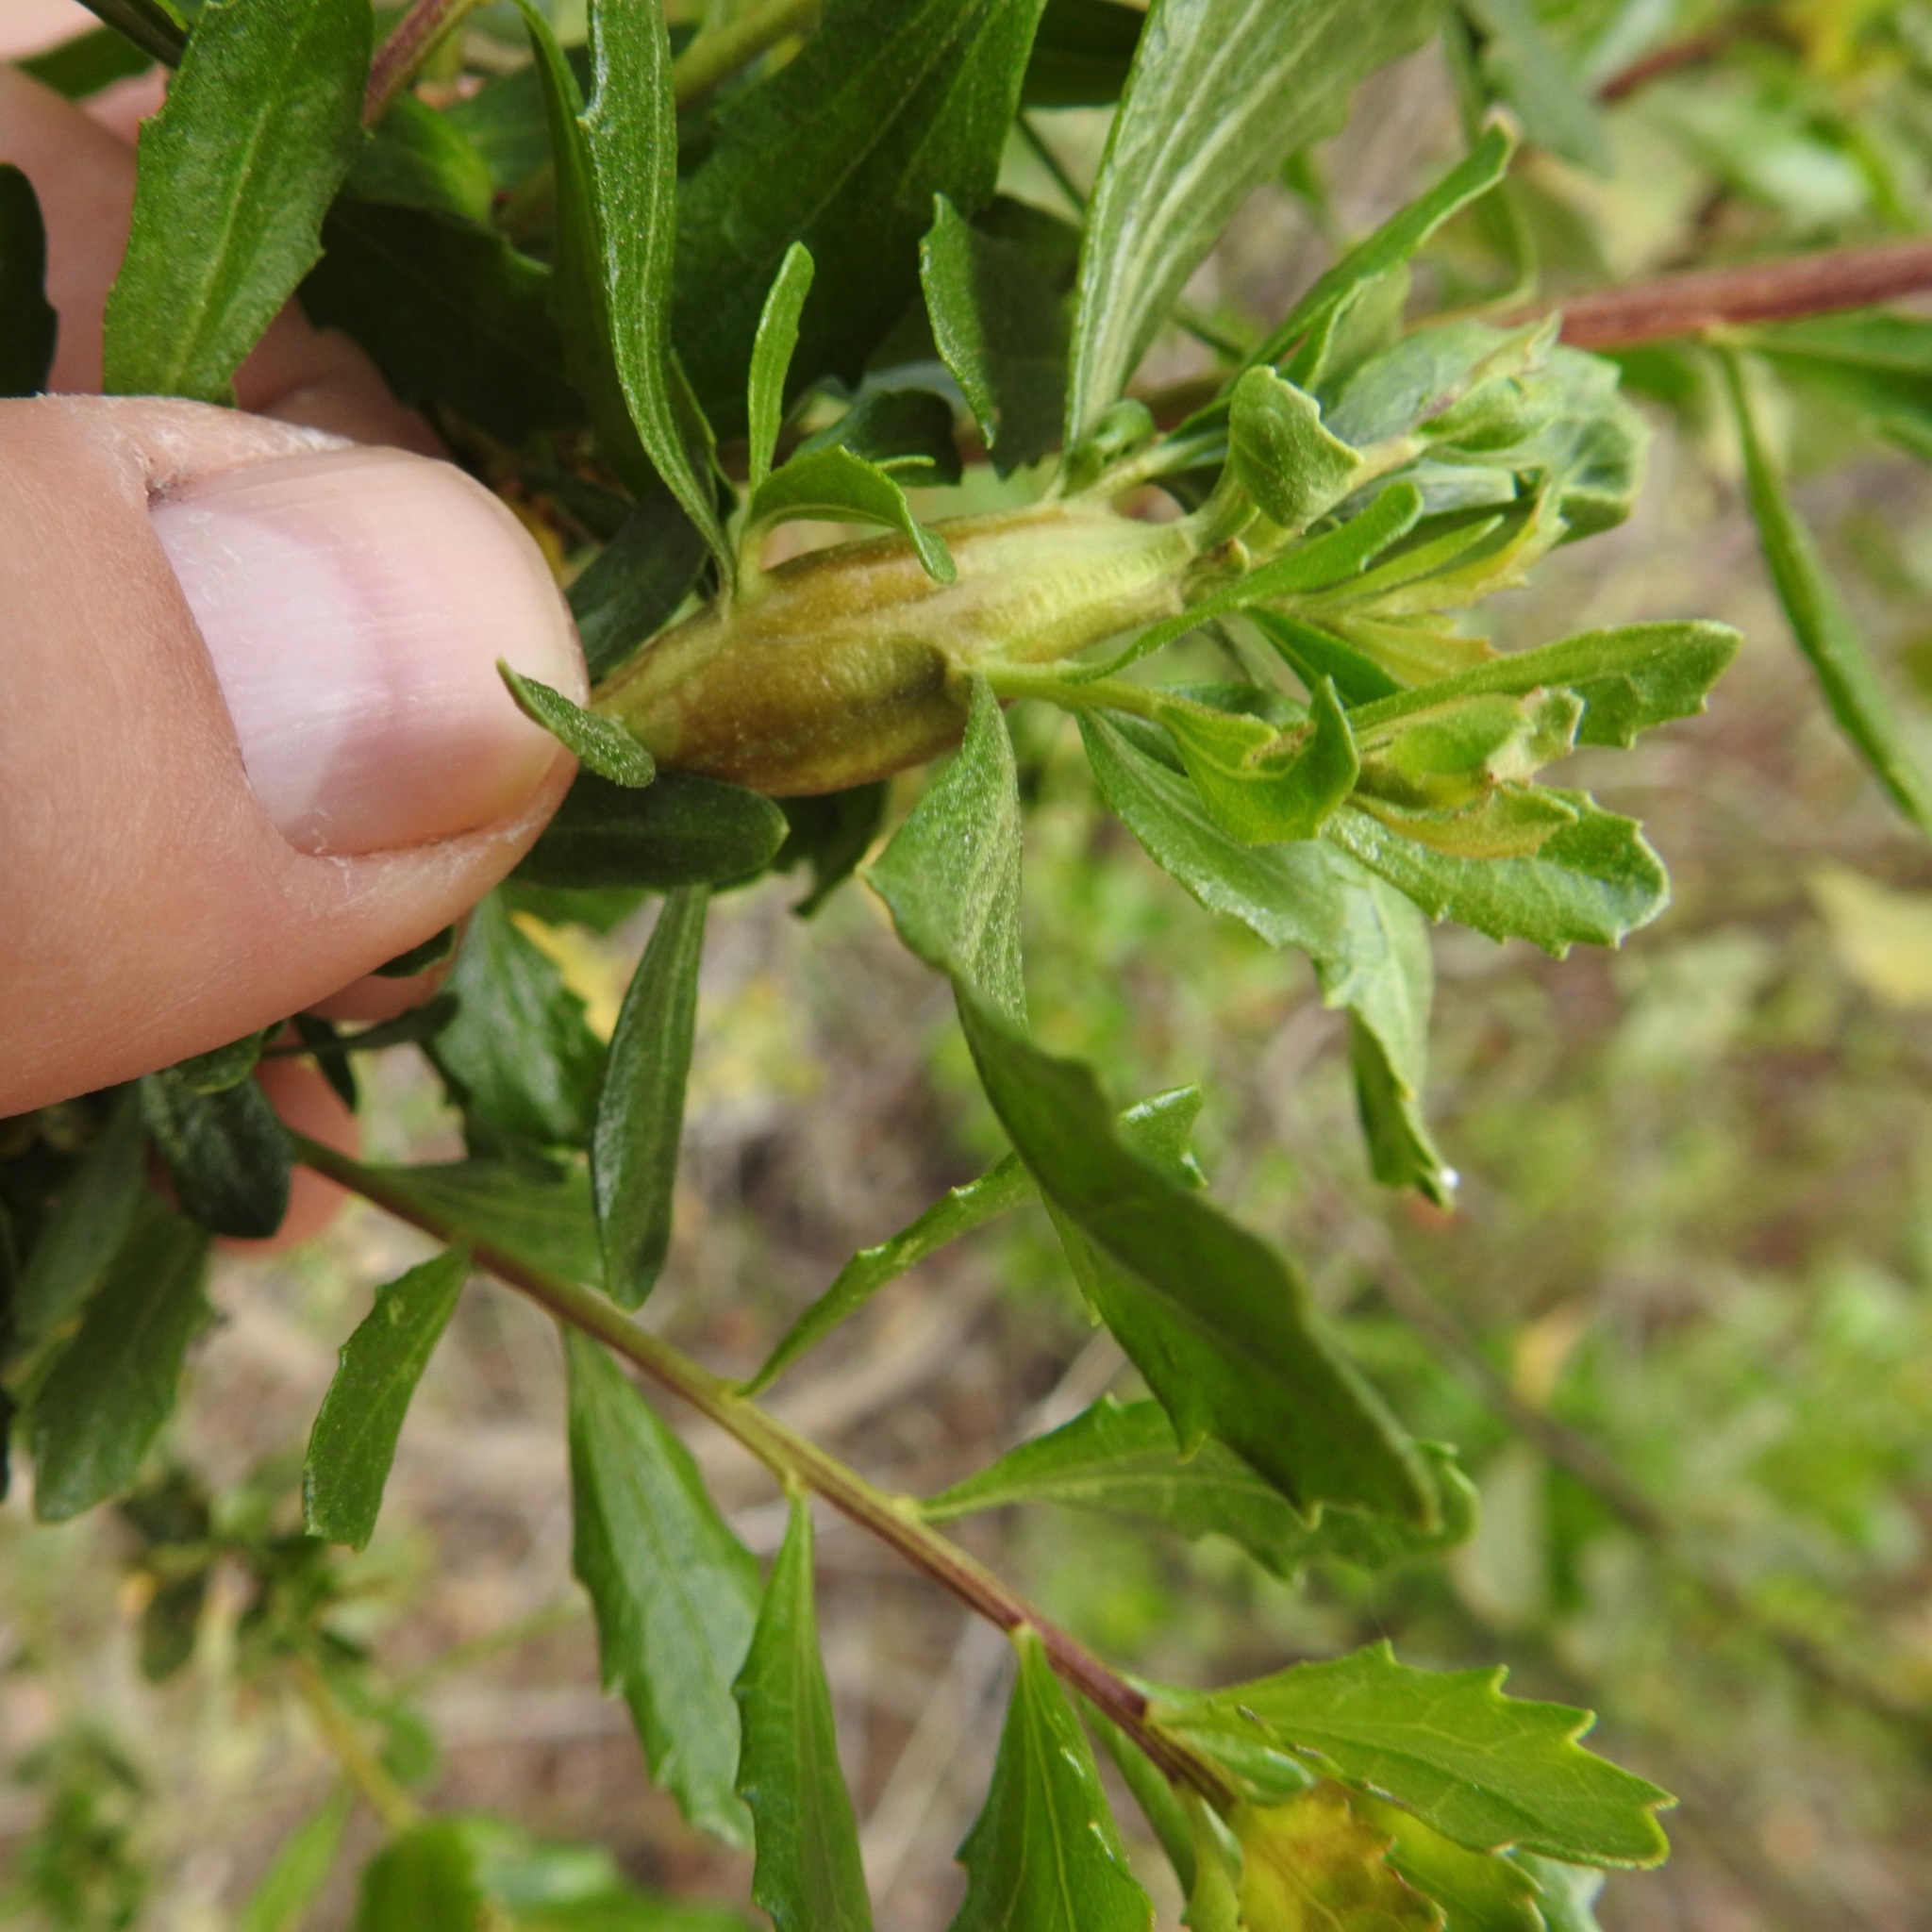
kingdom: Animalia
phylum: Arthropoda
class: Insecta
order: Lepidoptera
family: Gelechiidae
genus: Gnorimoschema
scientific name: Gnorimoschema baccharisella
